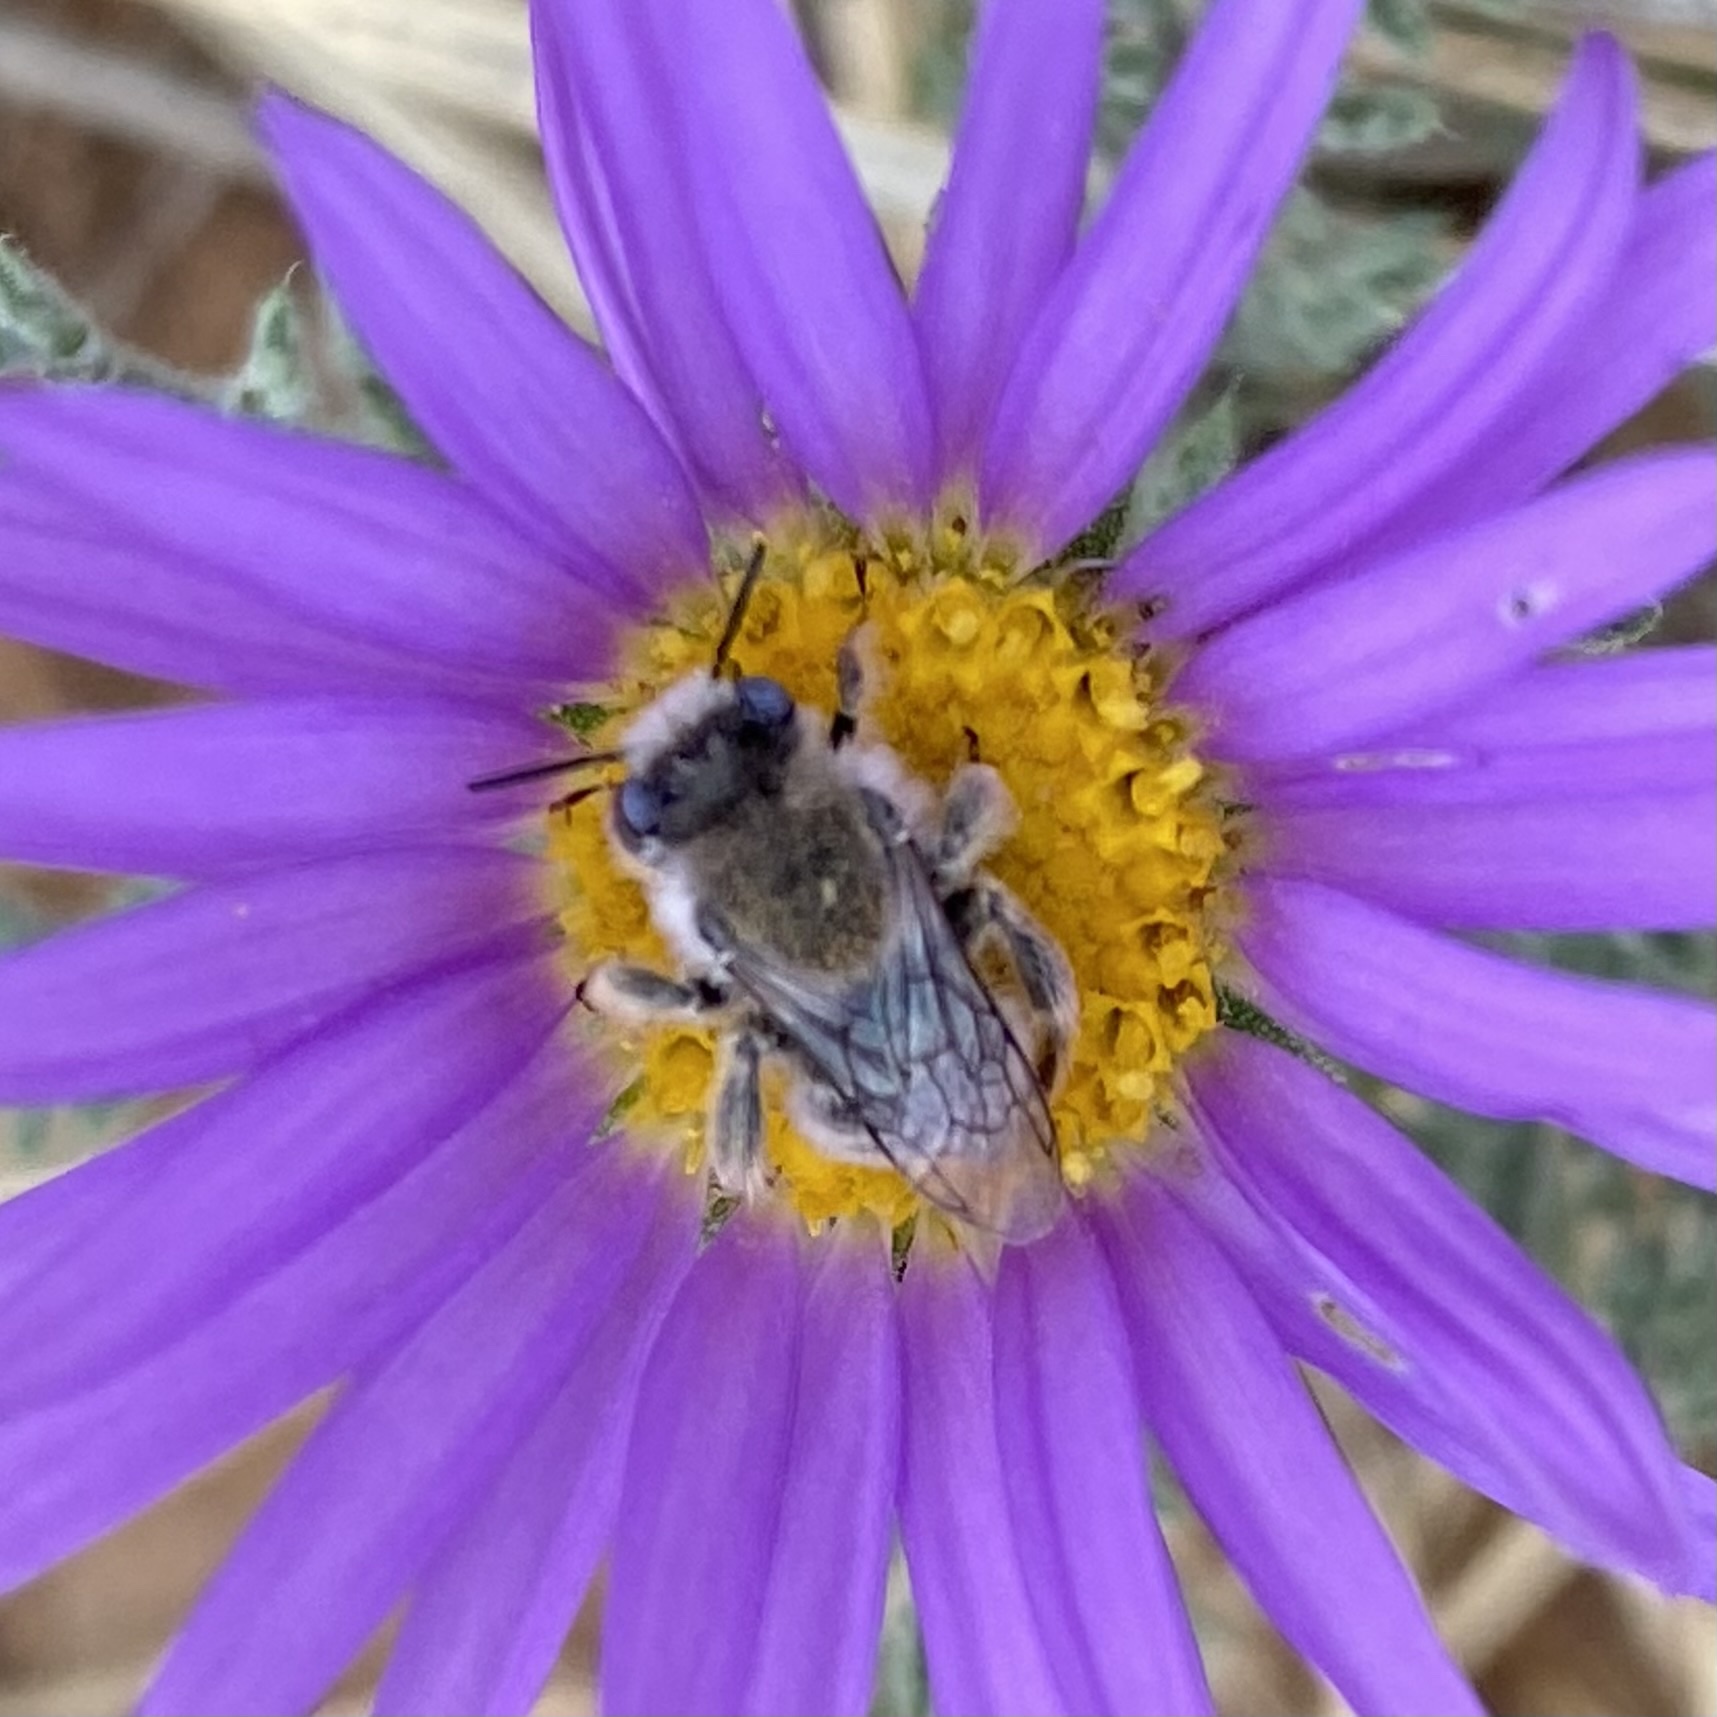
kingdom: Animalia
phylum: Arthropoda
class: Insecta
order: Hymenoptera
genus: Coquillettapis
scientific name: Coquillettapis
